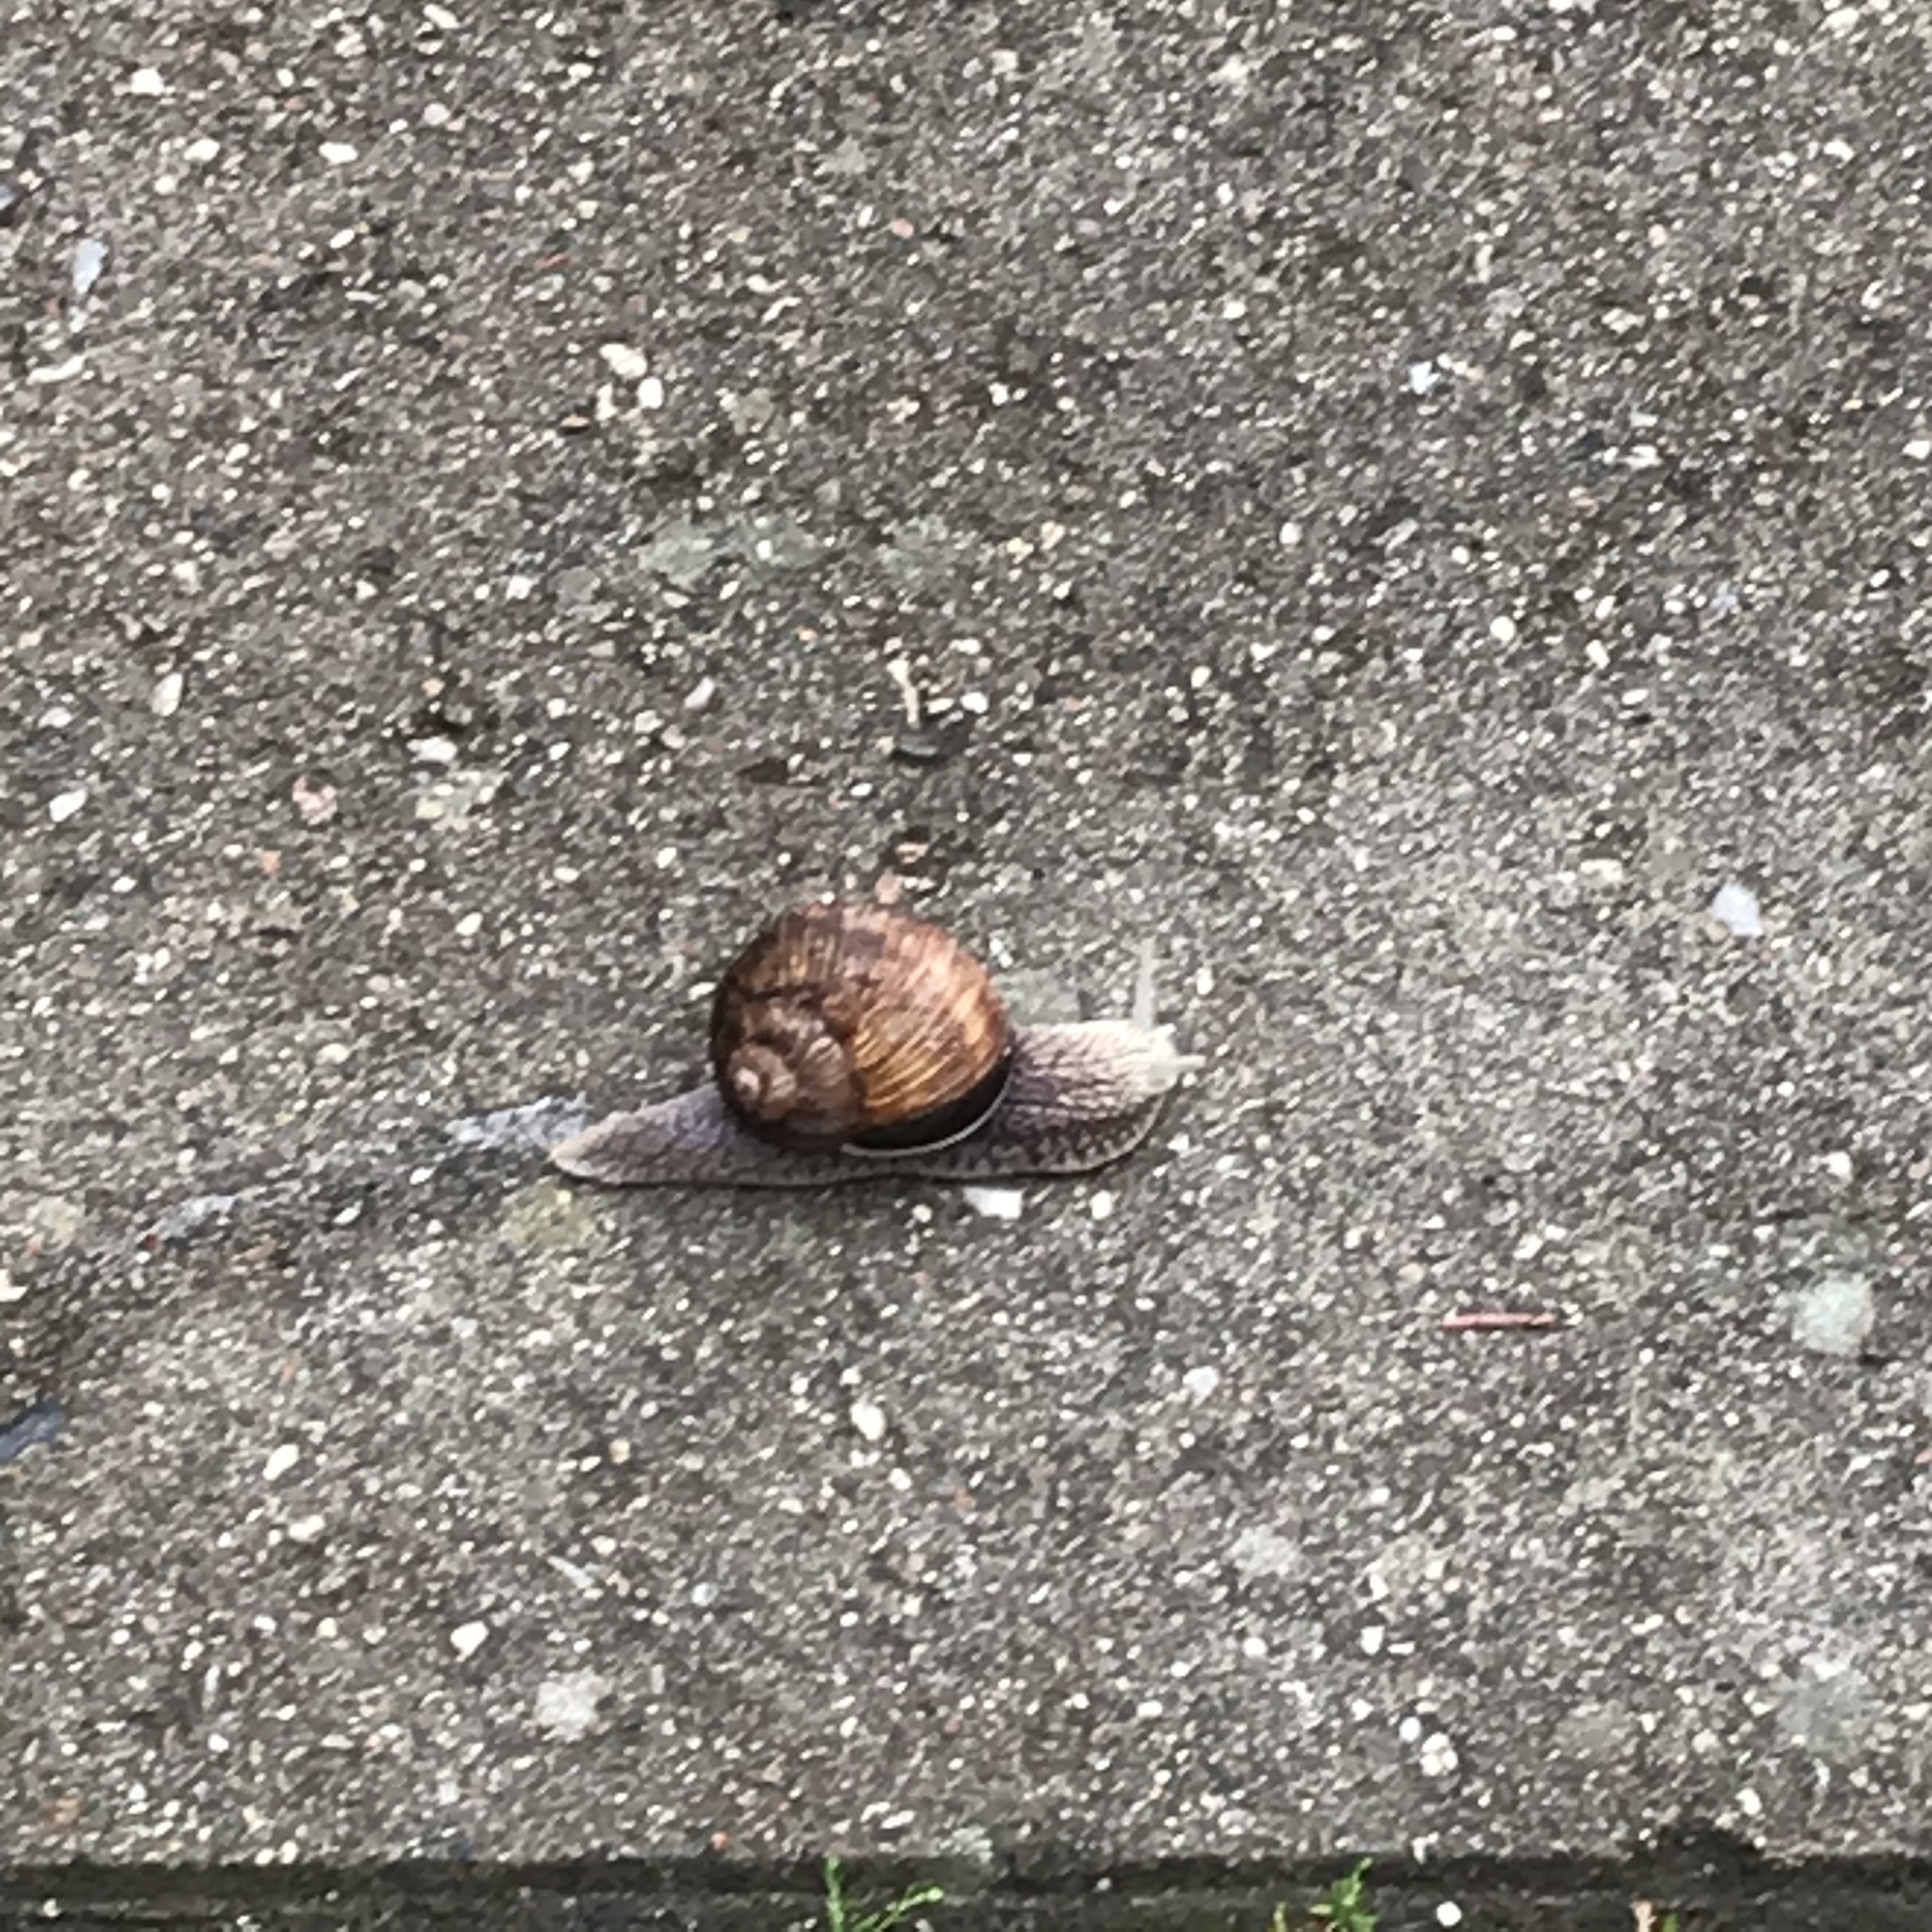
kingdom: Animalia
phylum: Mollusca
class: Gastropoda
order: Stylommatophora
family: Helicidae
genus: Helix
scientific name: Helix pomatia
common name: Roman snail
